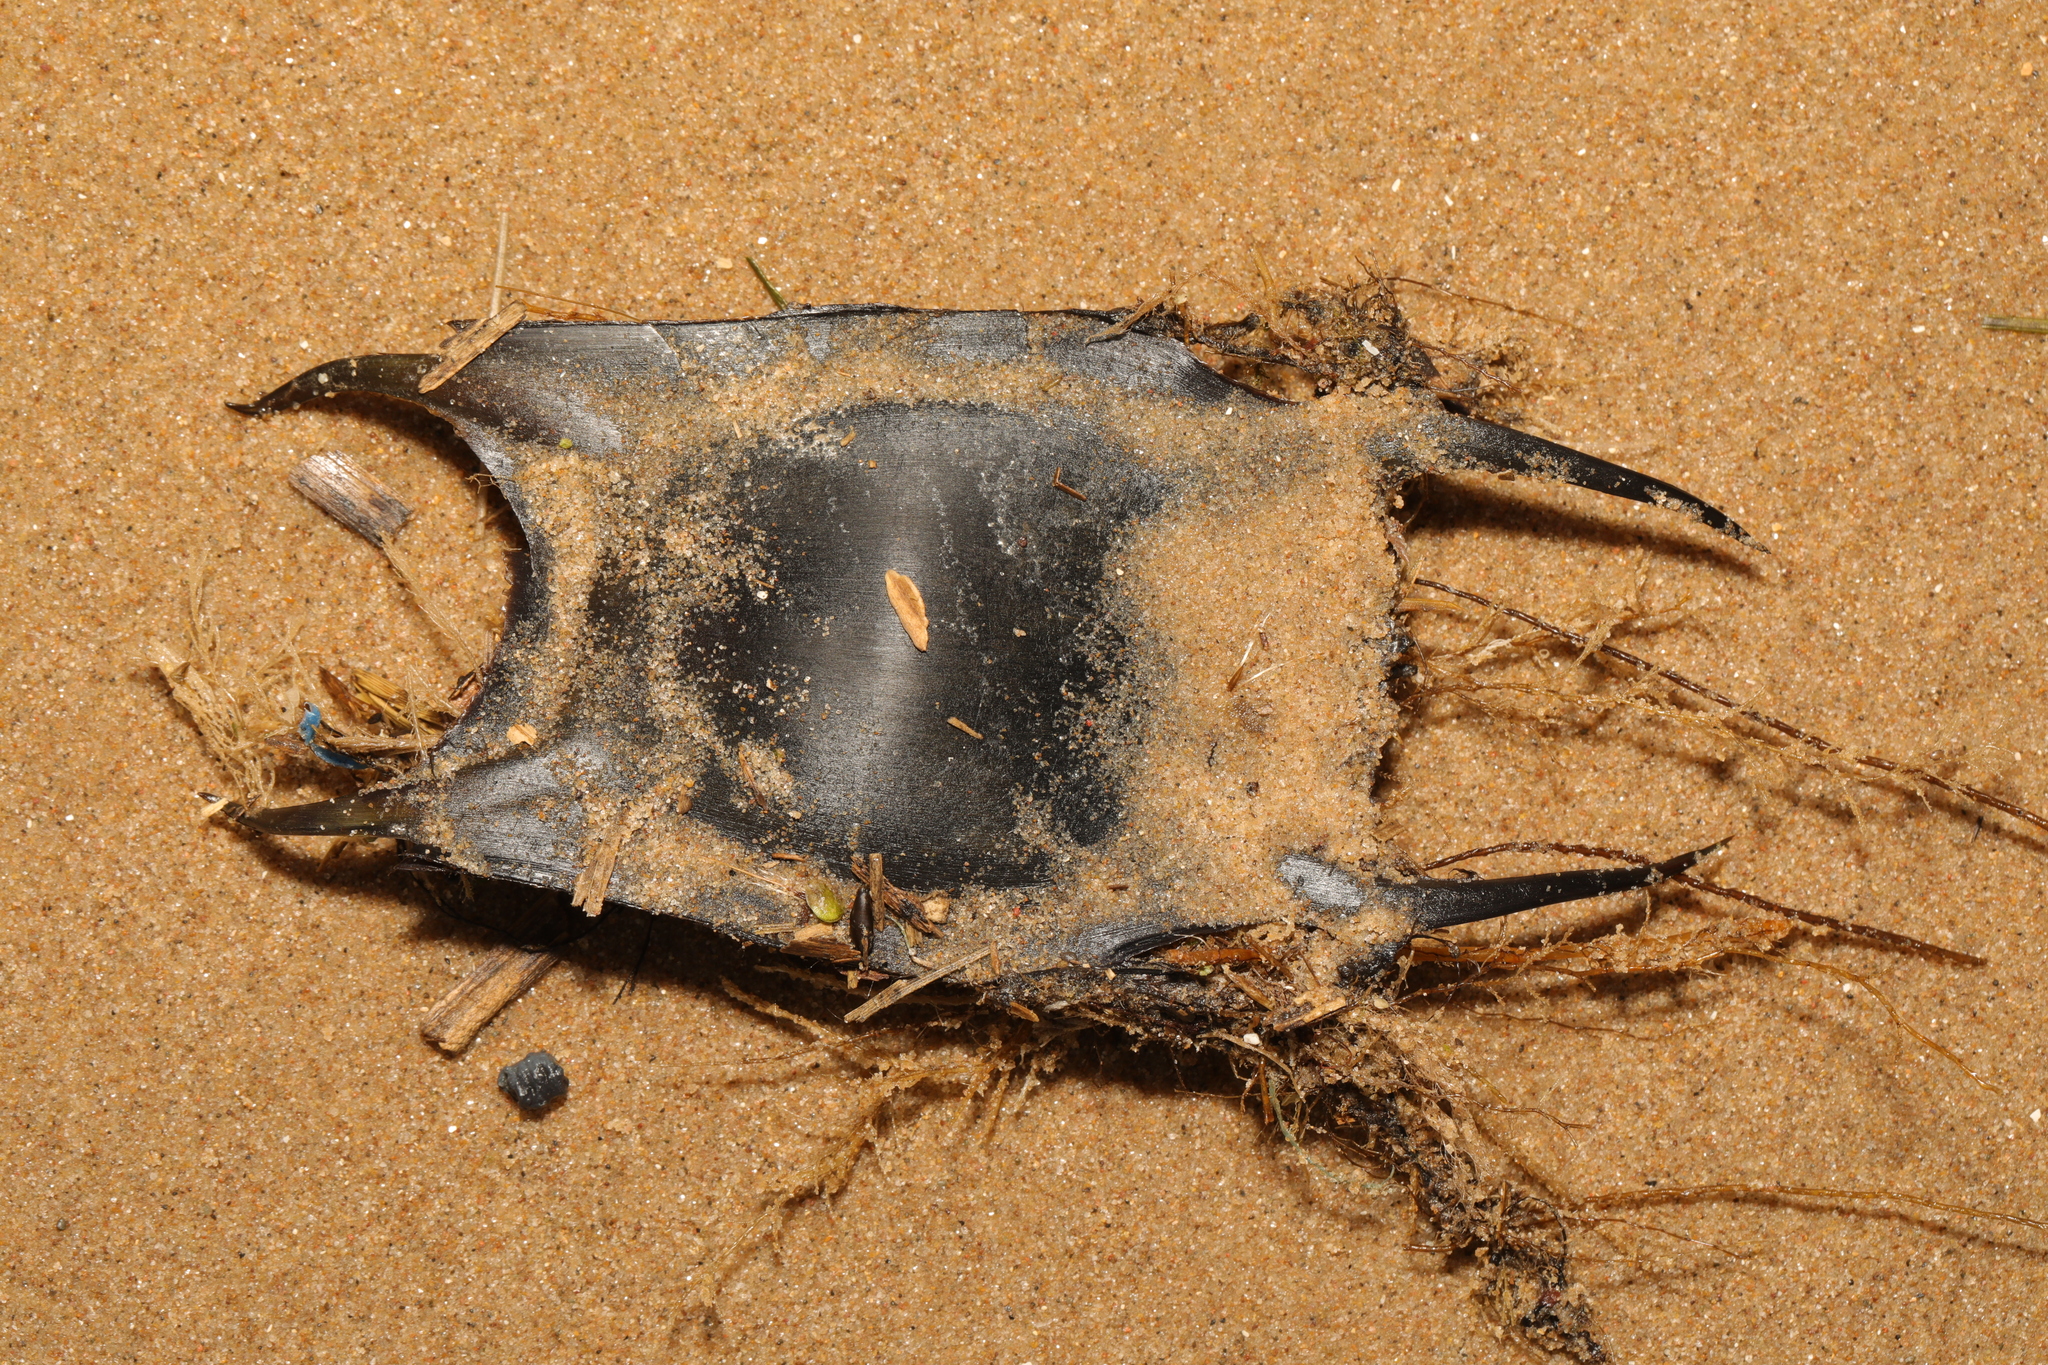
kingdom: Animalia
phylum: Chordata
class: Elasmobranchii
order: Rajiformes
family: Rajidae
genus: Raja
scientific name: Raja clavata
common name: Thornback ray
